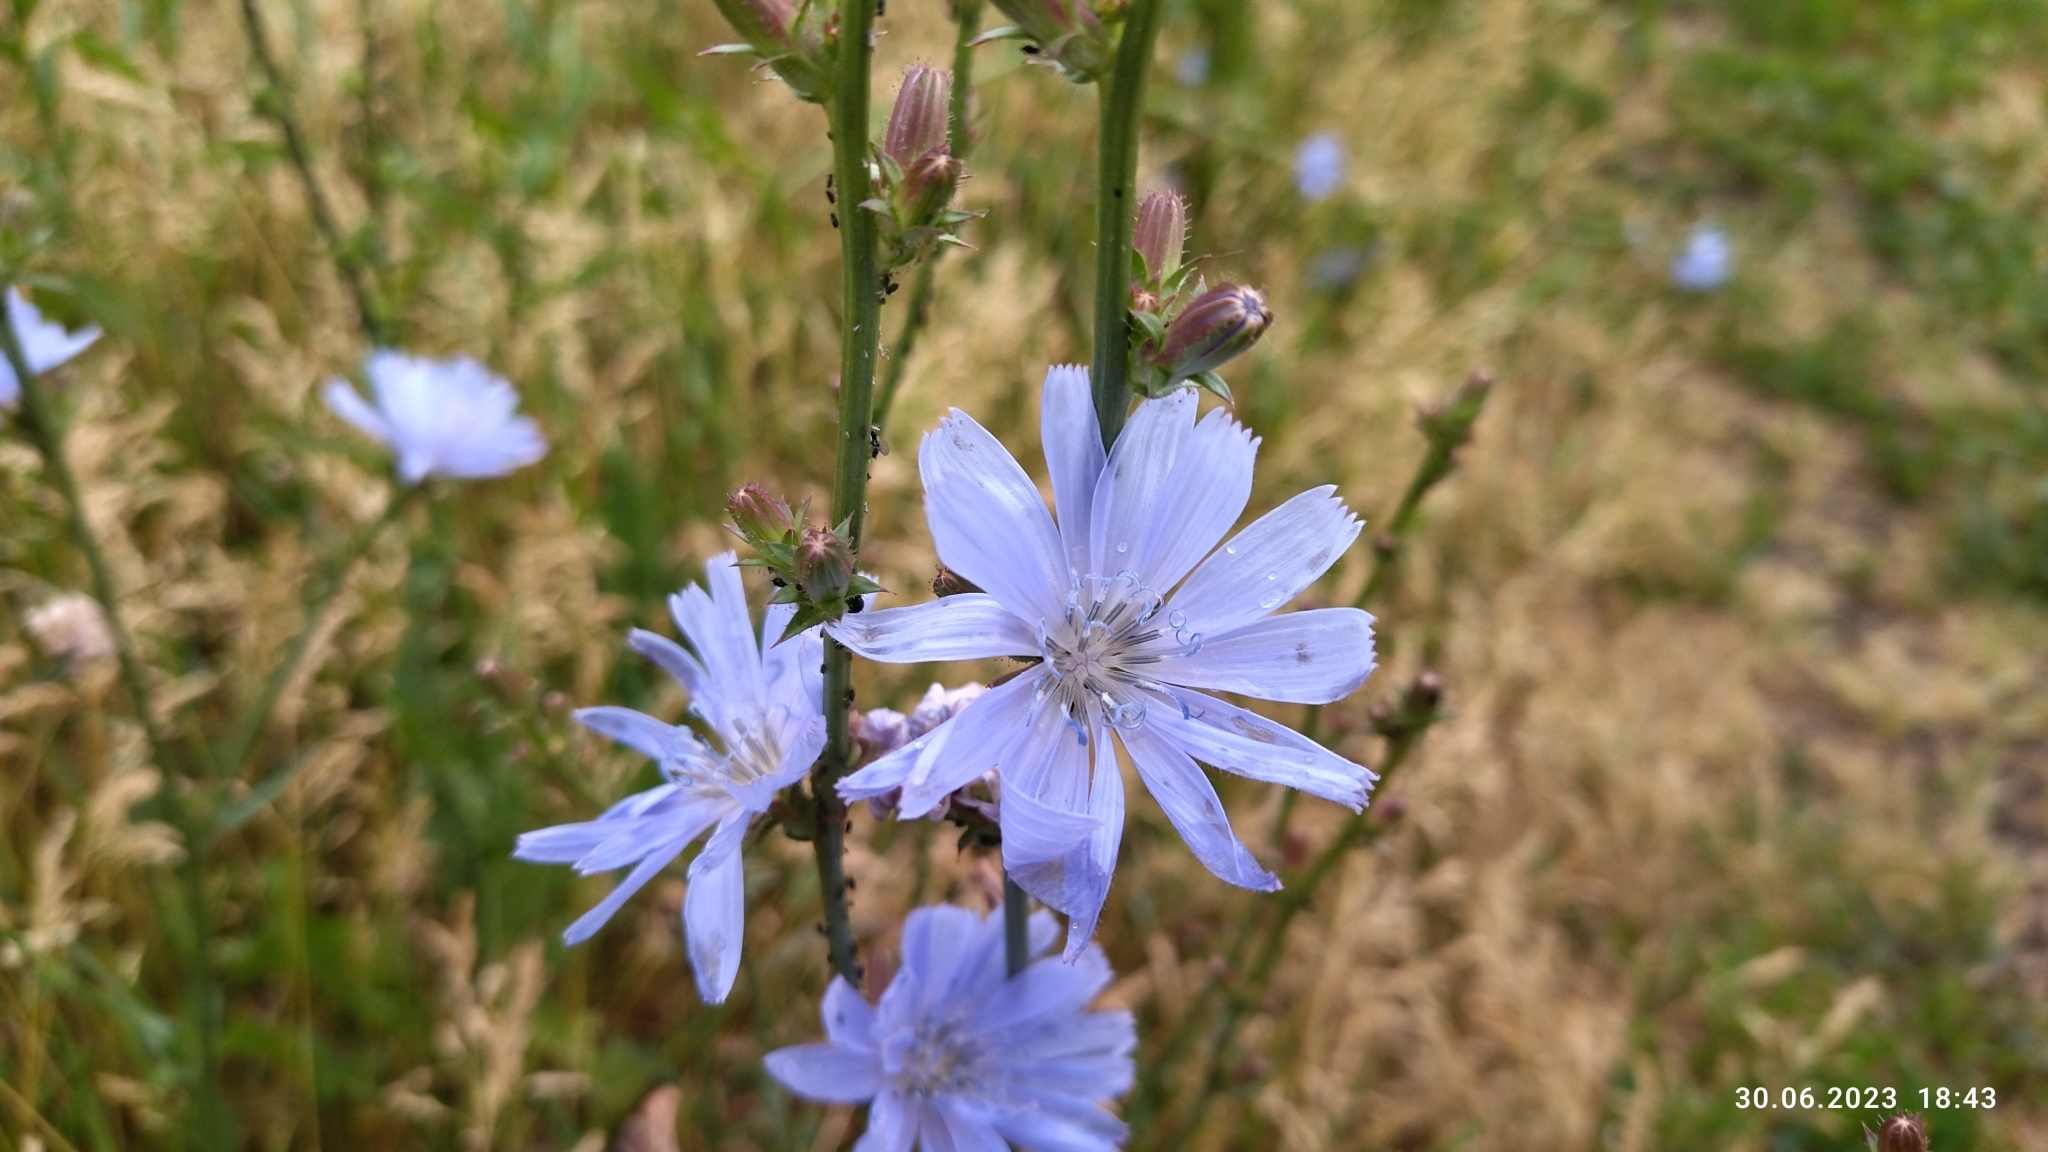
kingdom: Plantae
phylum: Tracheophyta
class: Magnoliopsida
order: Asterales
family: Asteraceae
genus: Cichorium
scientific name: Cichorium intybus
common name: Chicory
